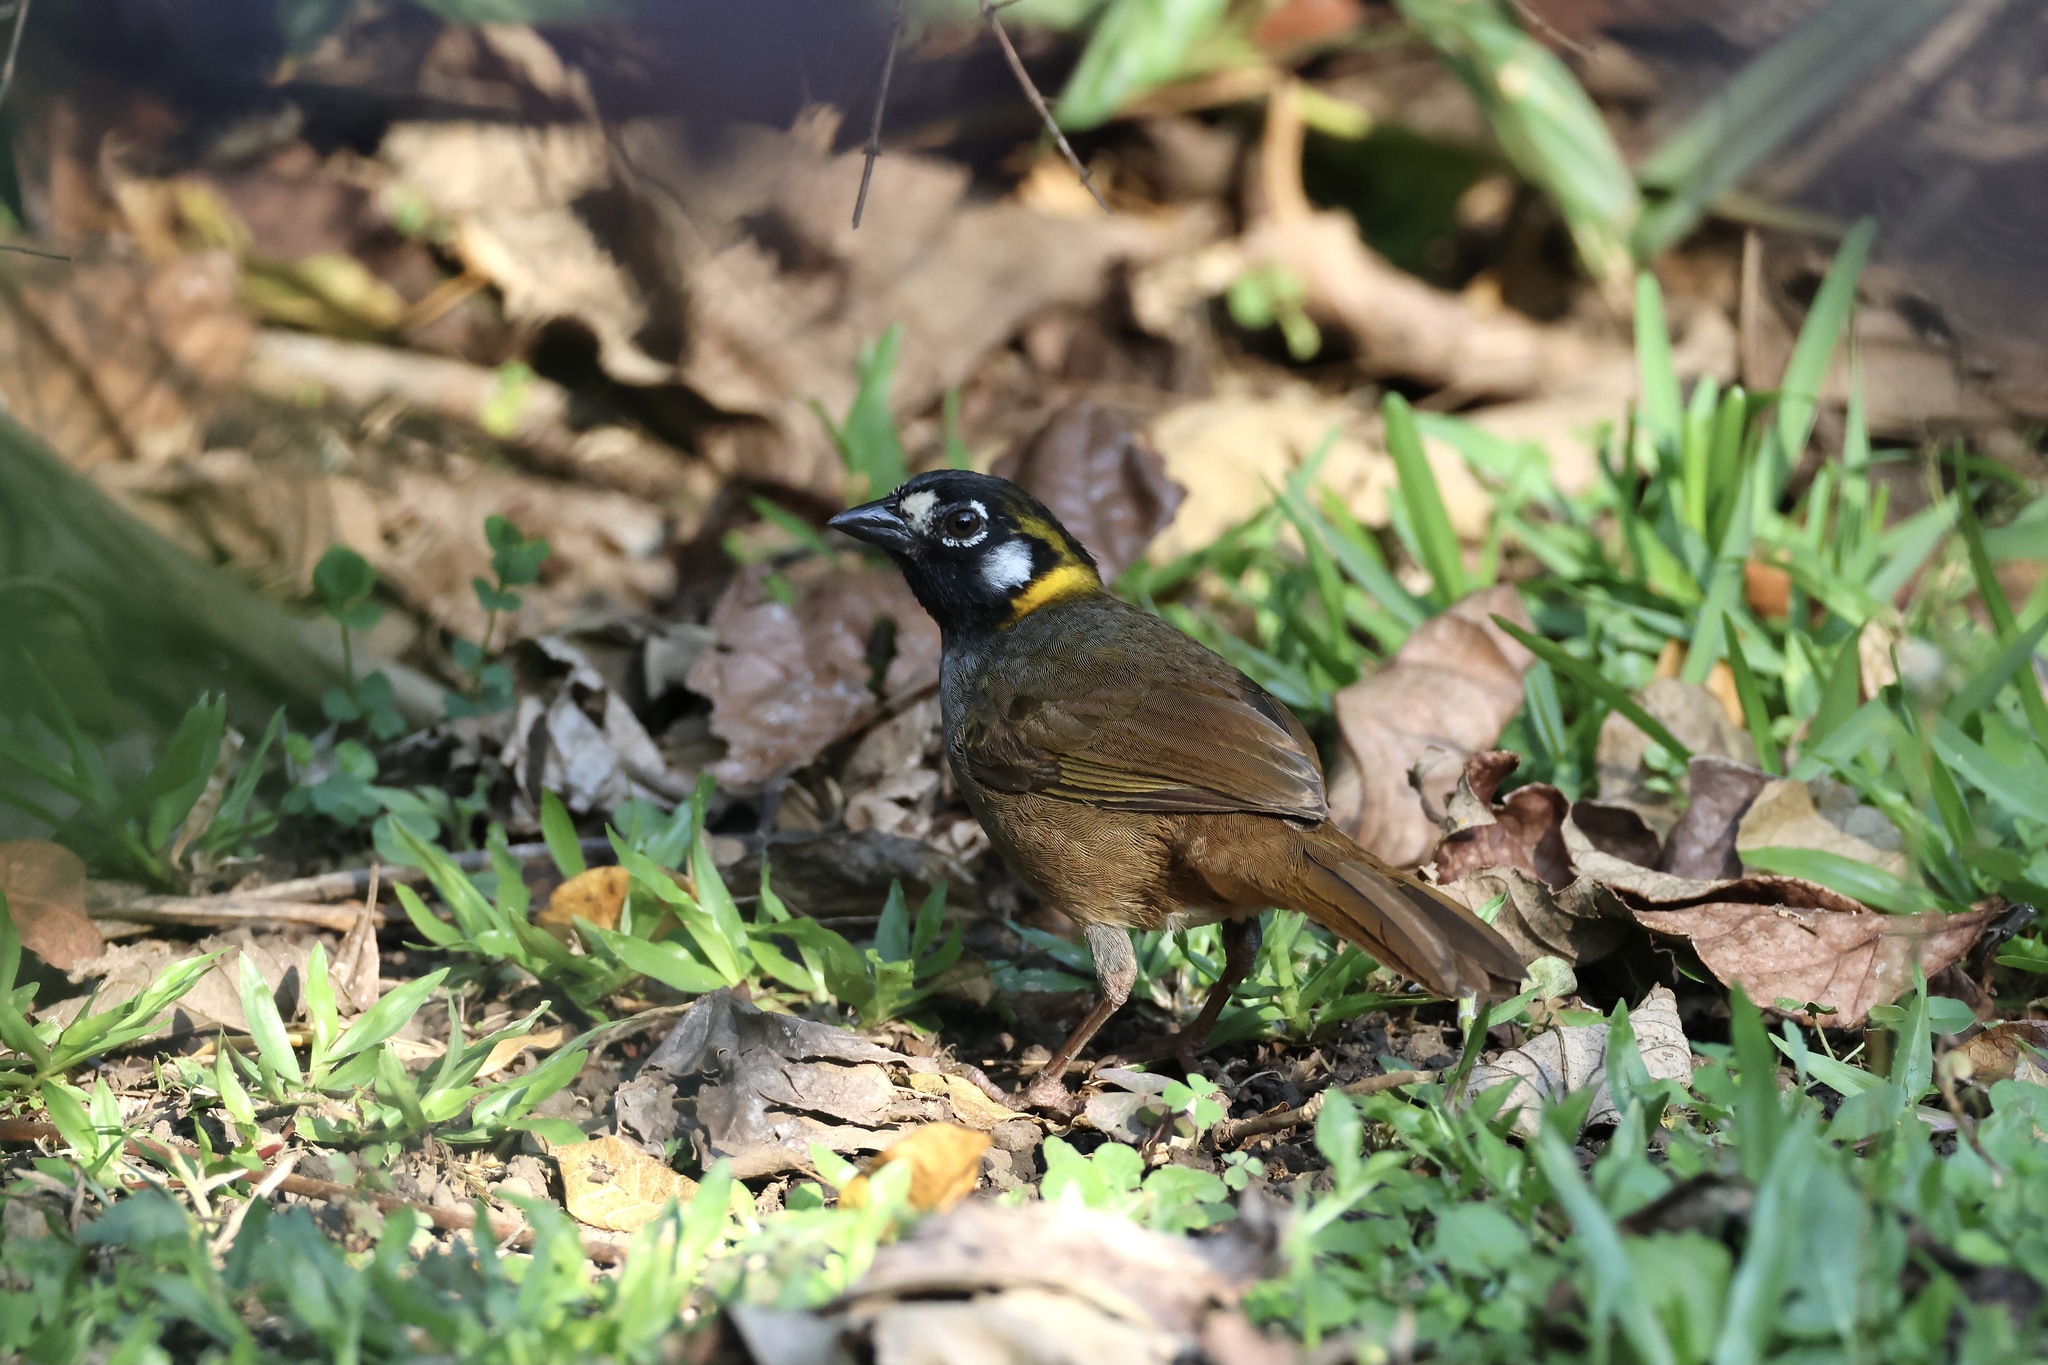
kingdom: Animalia
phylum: Chordata
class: Aves
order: Passeriformes
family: Passerellidae
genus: Melozone
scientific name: Melozone leucotis
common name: White-eared ground-sparrow
